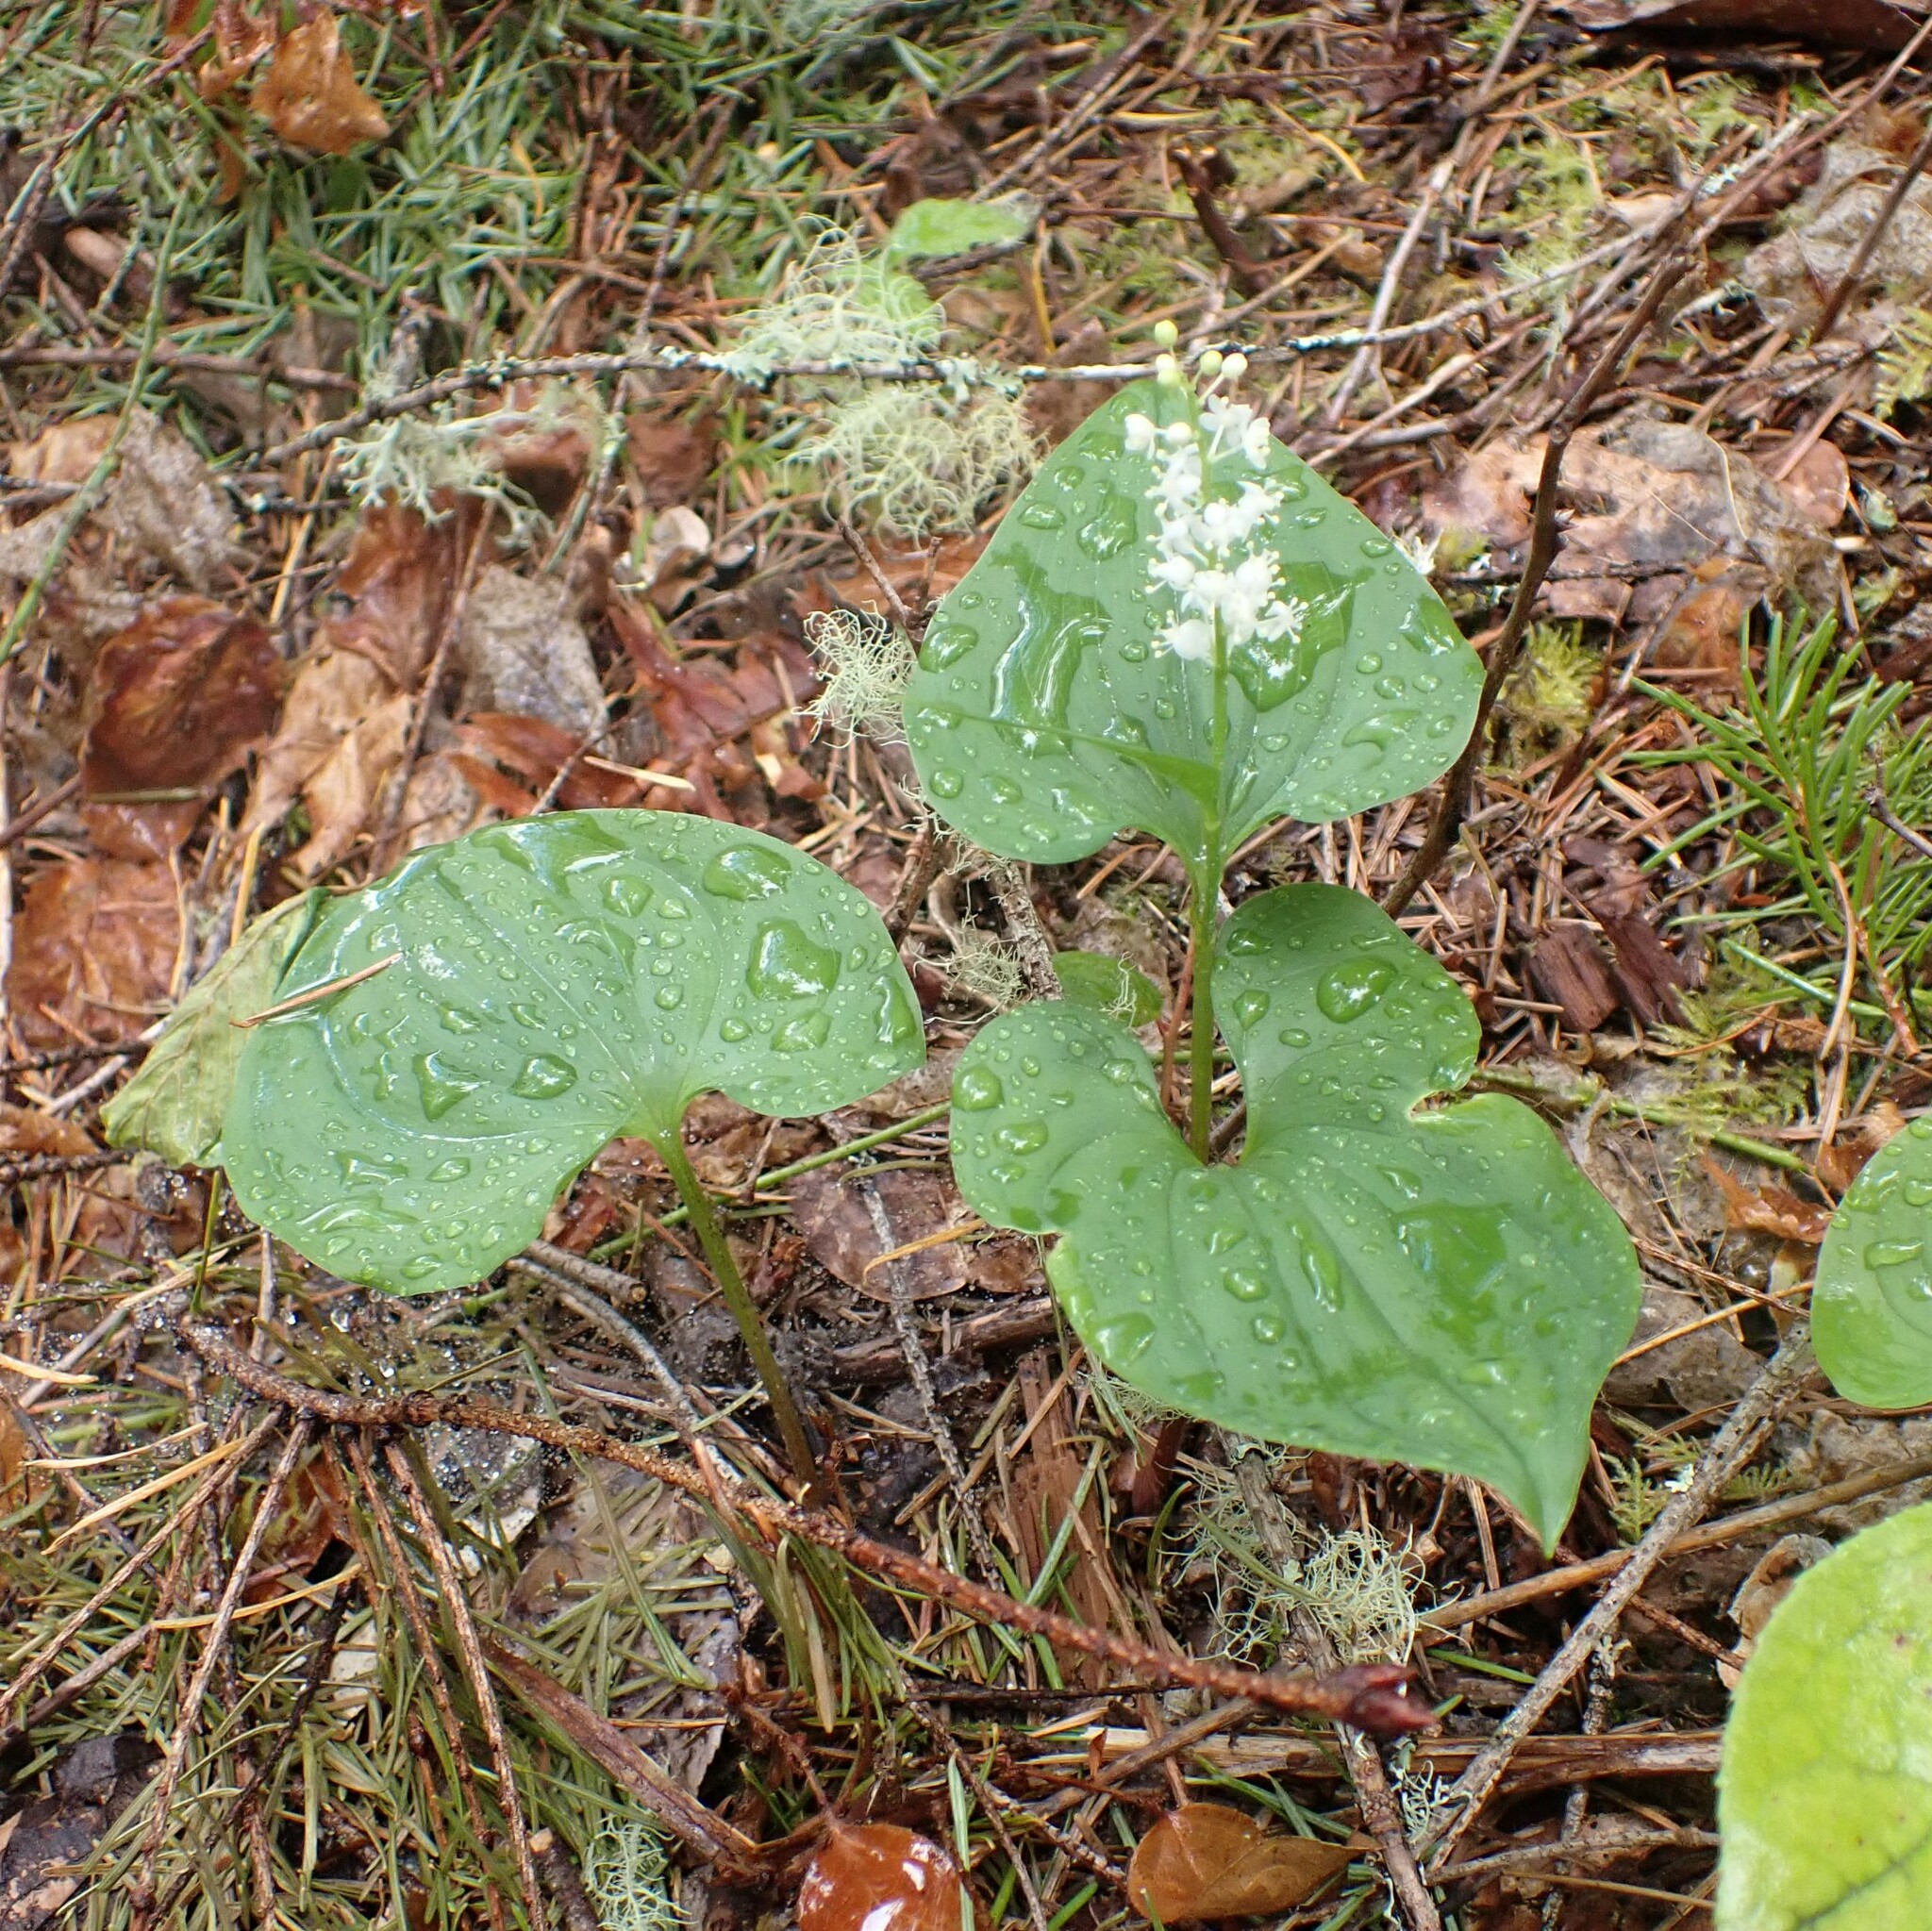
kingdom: Plantae
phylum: Tracheophyta
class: Liliopsida
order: Asparagales
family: Asparagaceae
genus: Maianthemum
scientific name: Maianthemum dilatatum
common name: False lily-of-the-valley
